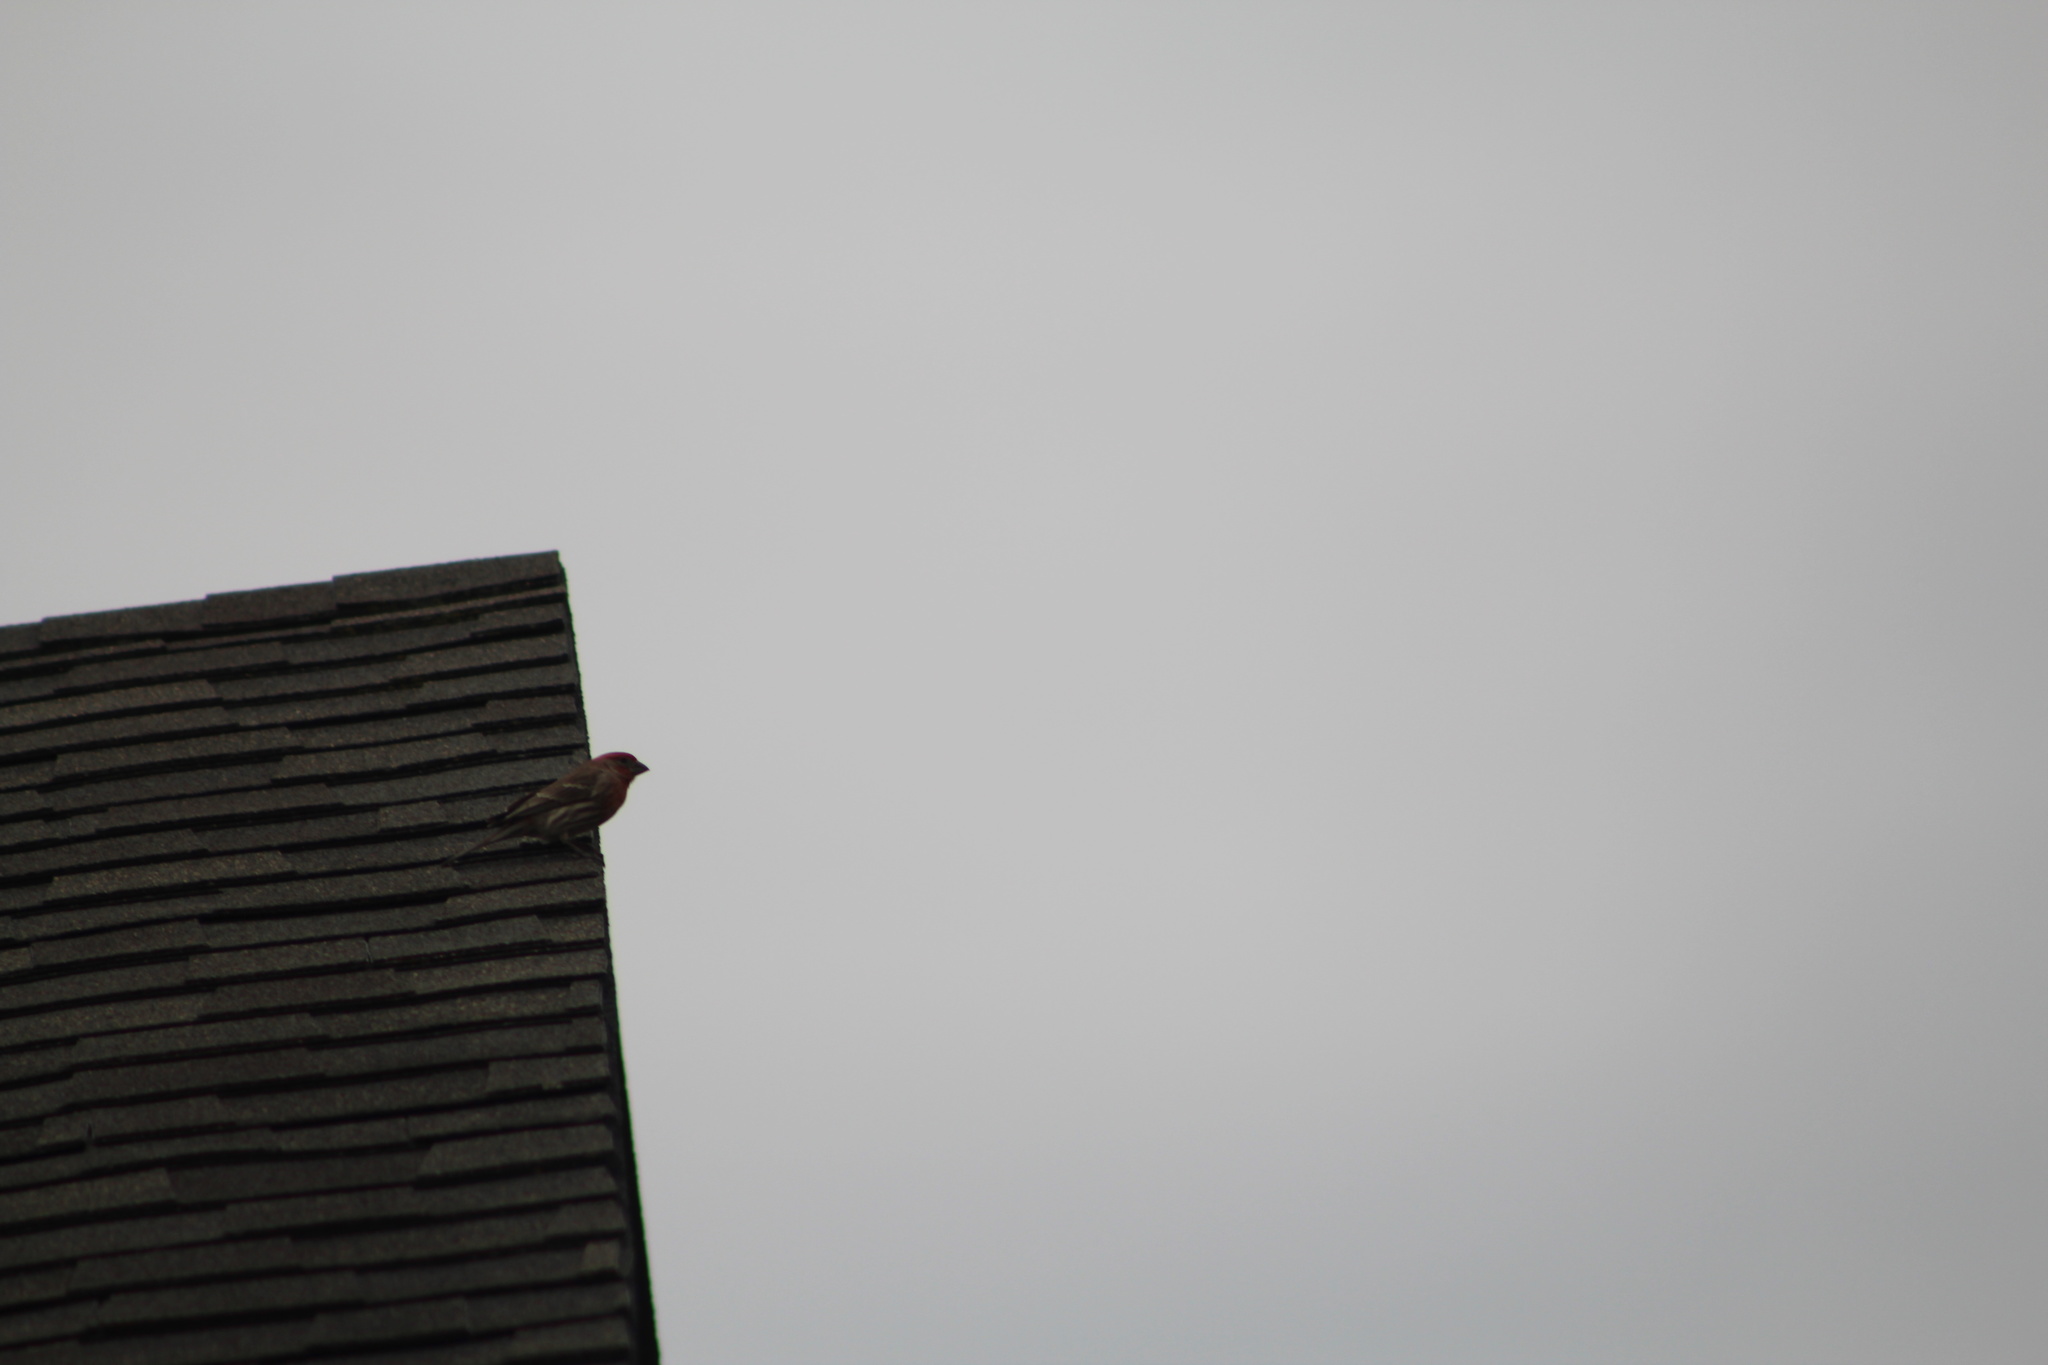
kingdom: Animalia
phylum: Chordata
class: Aves
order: Passeriformes
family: Fringillidae
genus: Haemorhous
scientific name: Haemorhous mexicanus
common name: House finch
